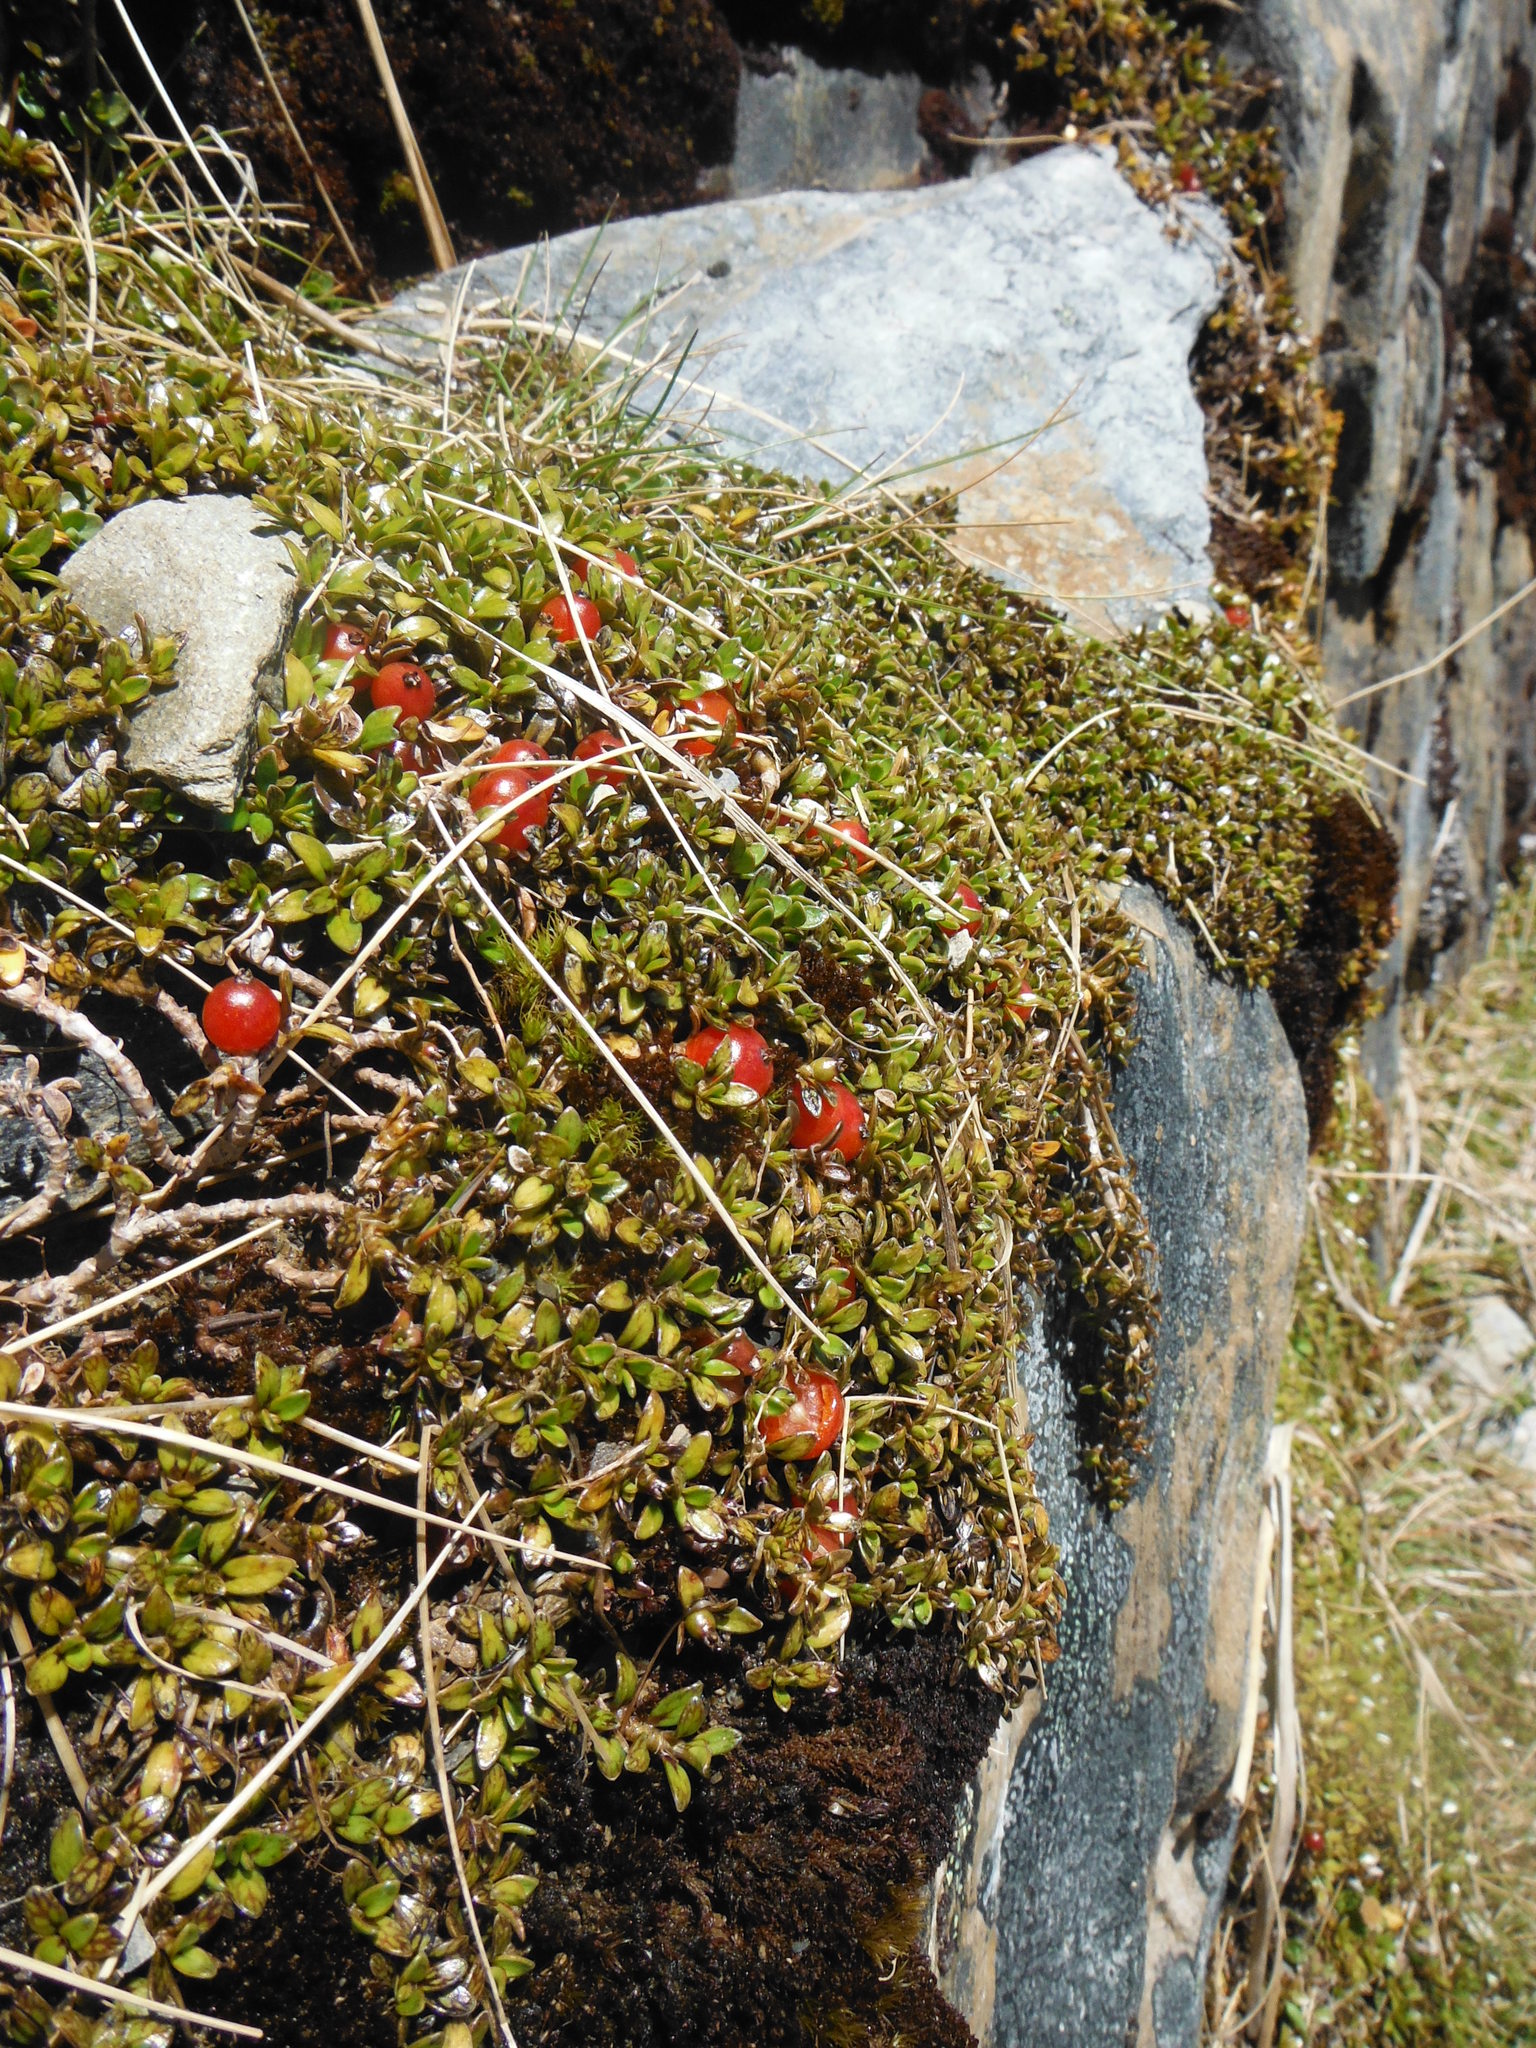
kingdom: Plantae
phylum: Tracheophyta
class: Magnoliopsida
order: Gentianales
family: Rubiaceae
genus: Coprosma
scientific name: Coprosma perpusilla
